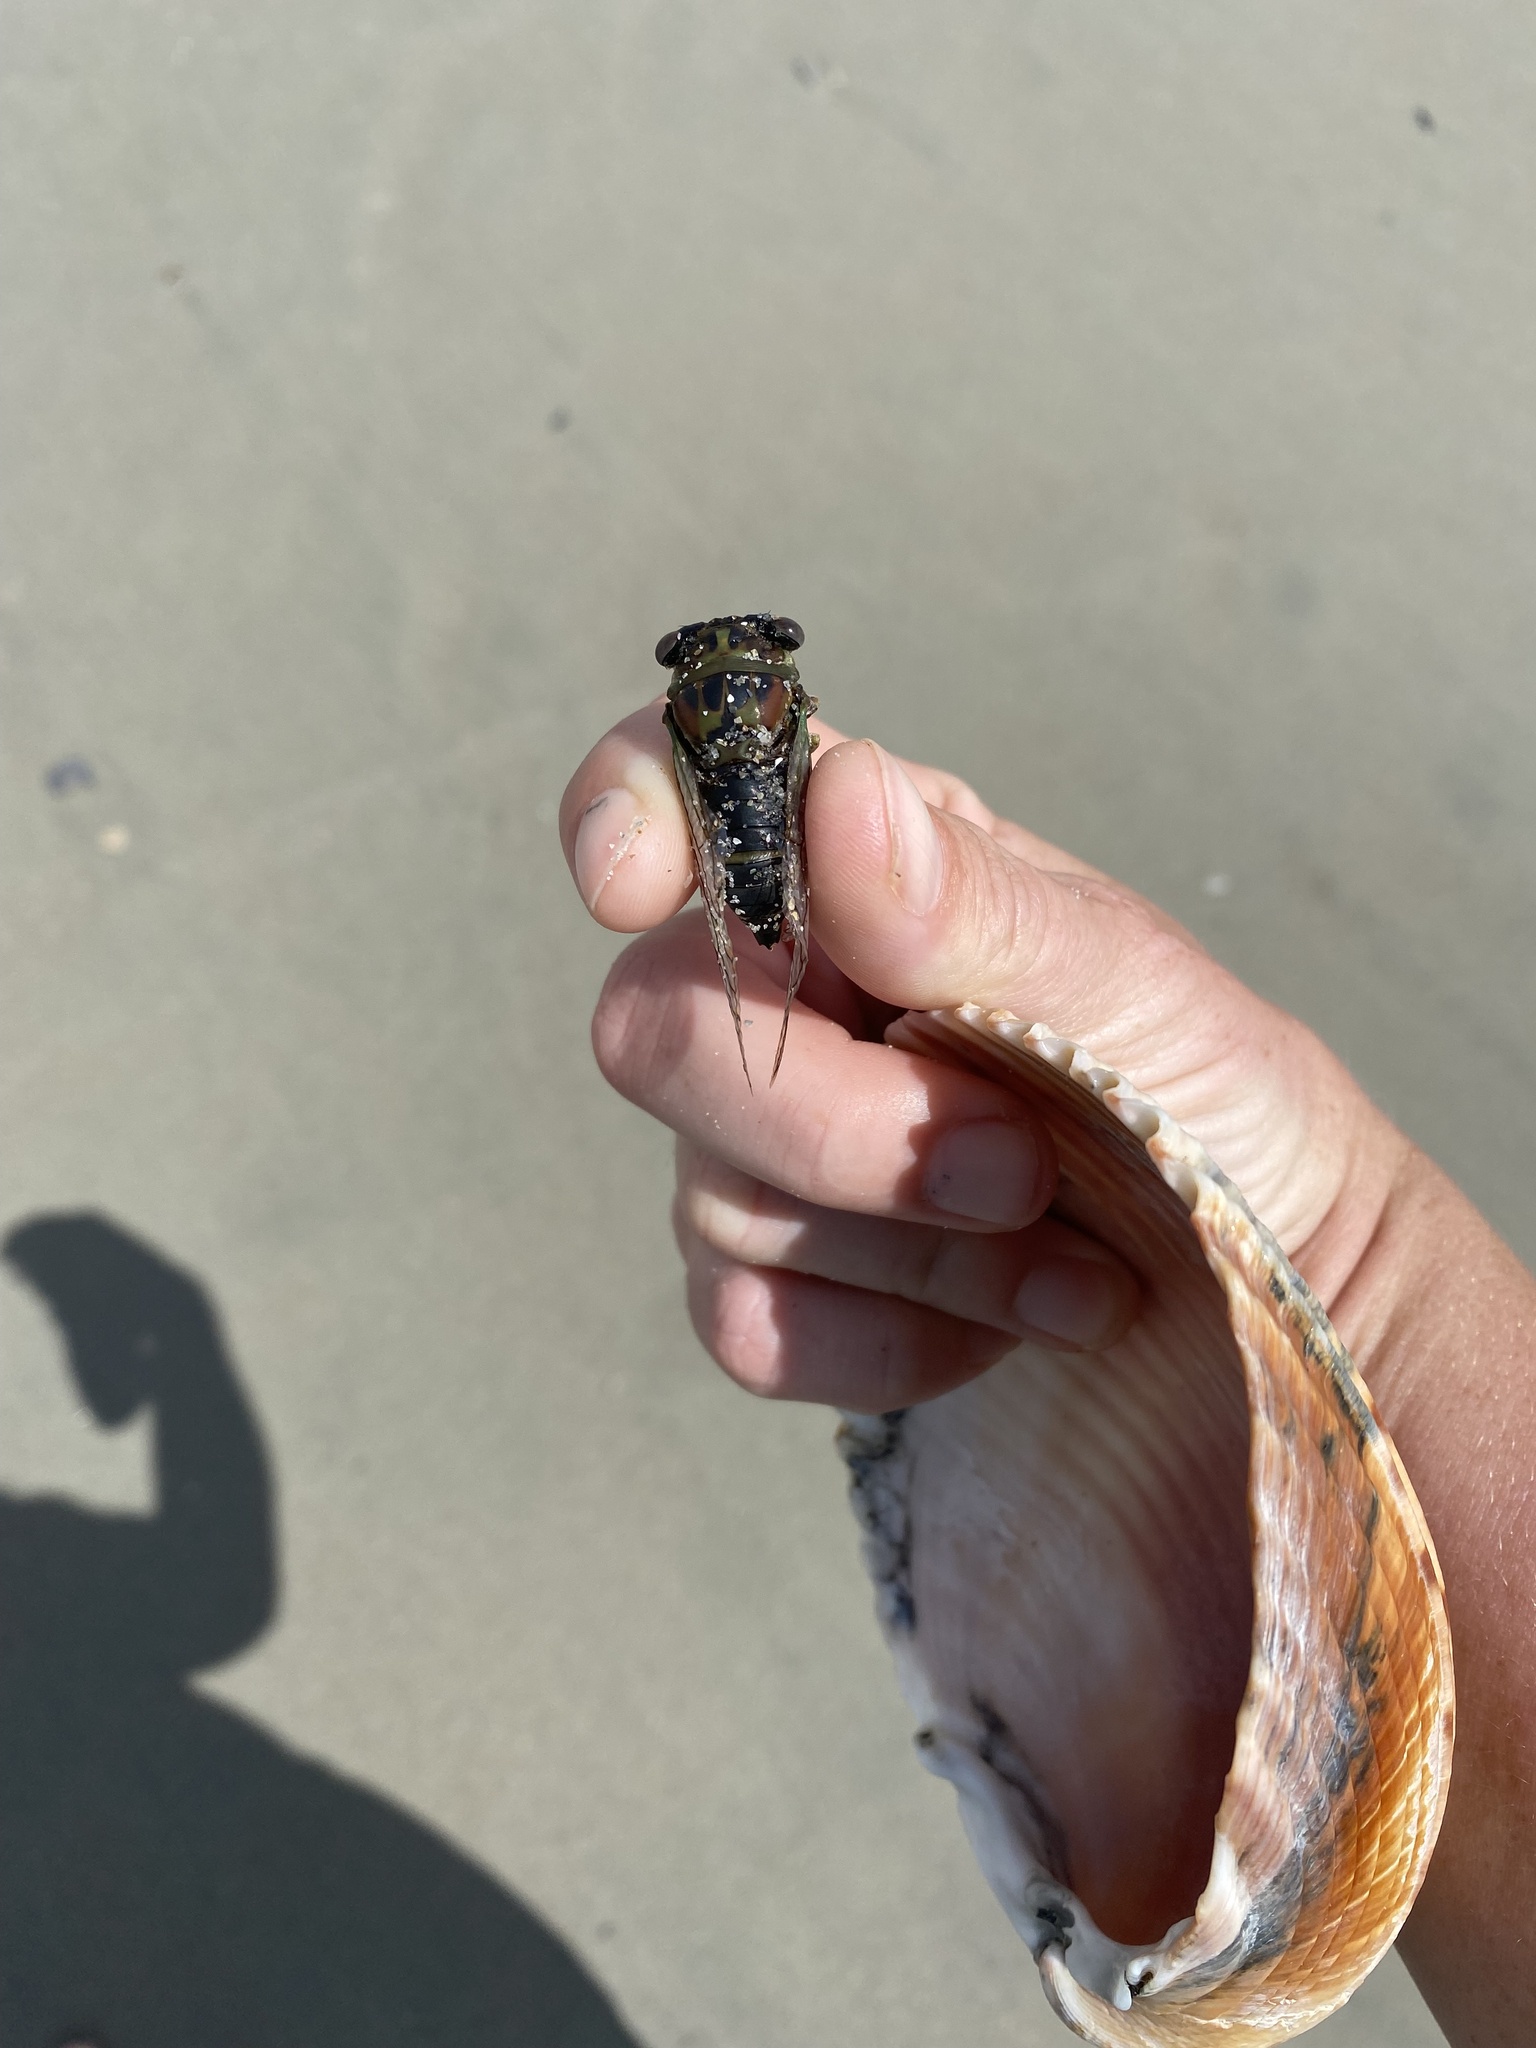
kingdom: Animalia
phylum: Arthropoda
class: Insecta
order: Hemiptera
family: Cicadidae
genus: Neotibicen
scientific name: Neotibicen davisi
